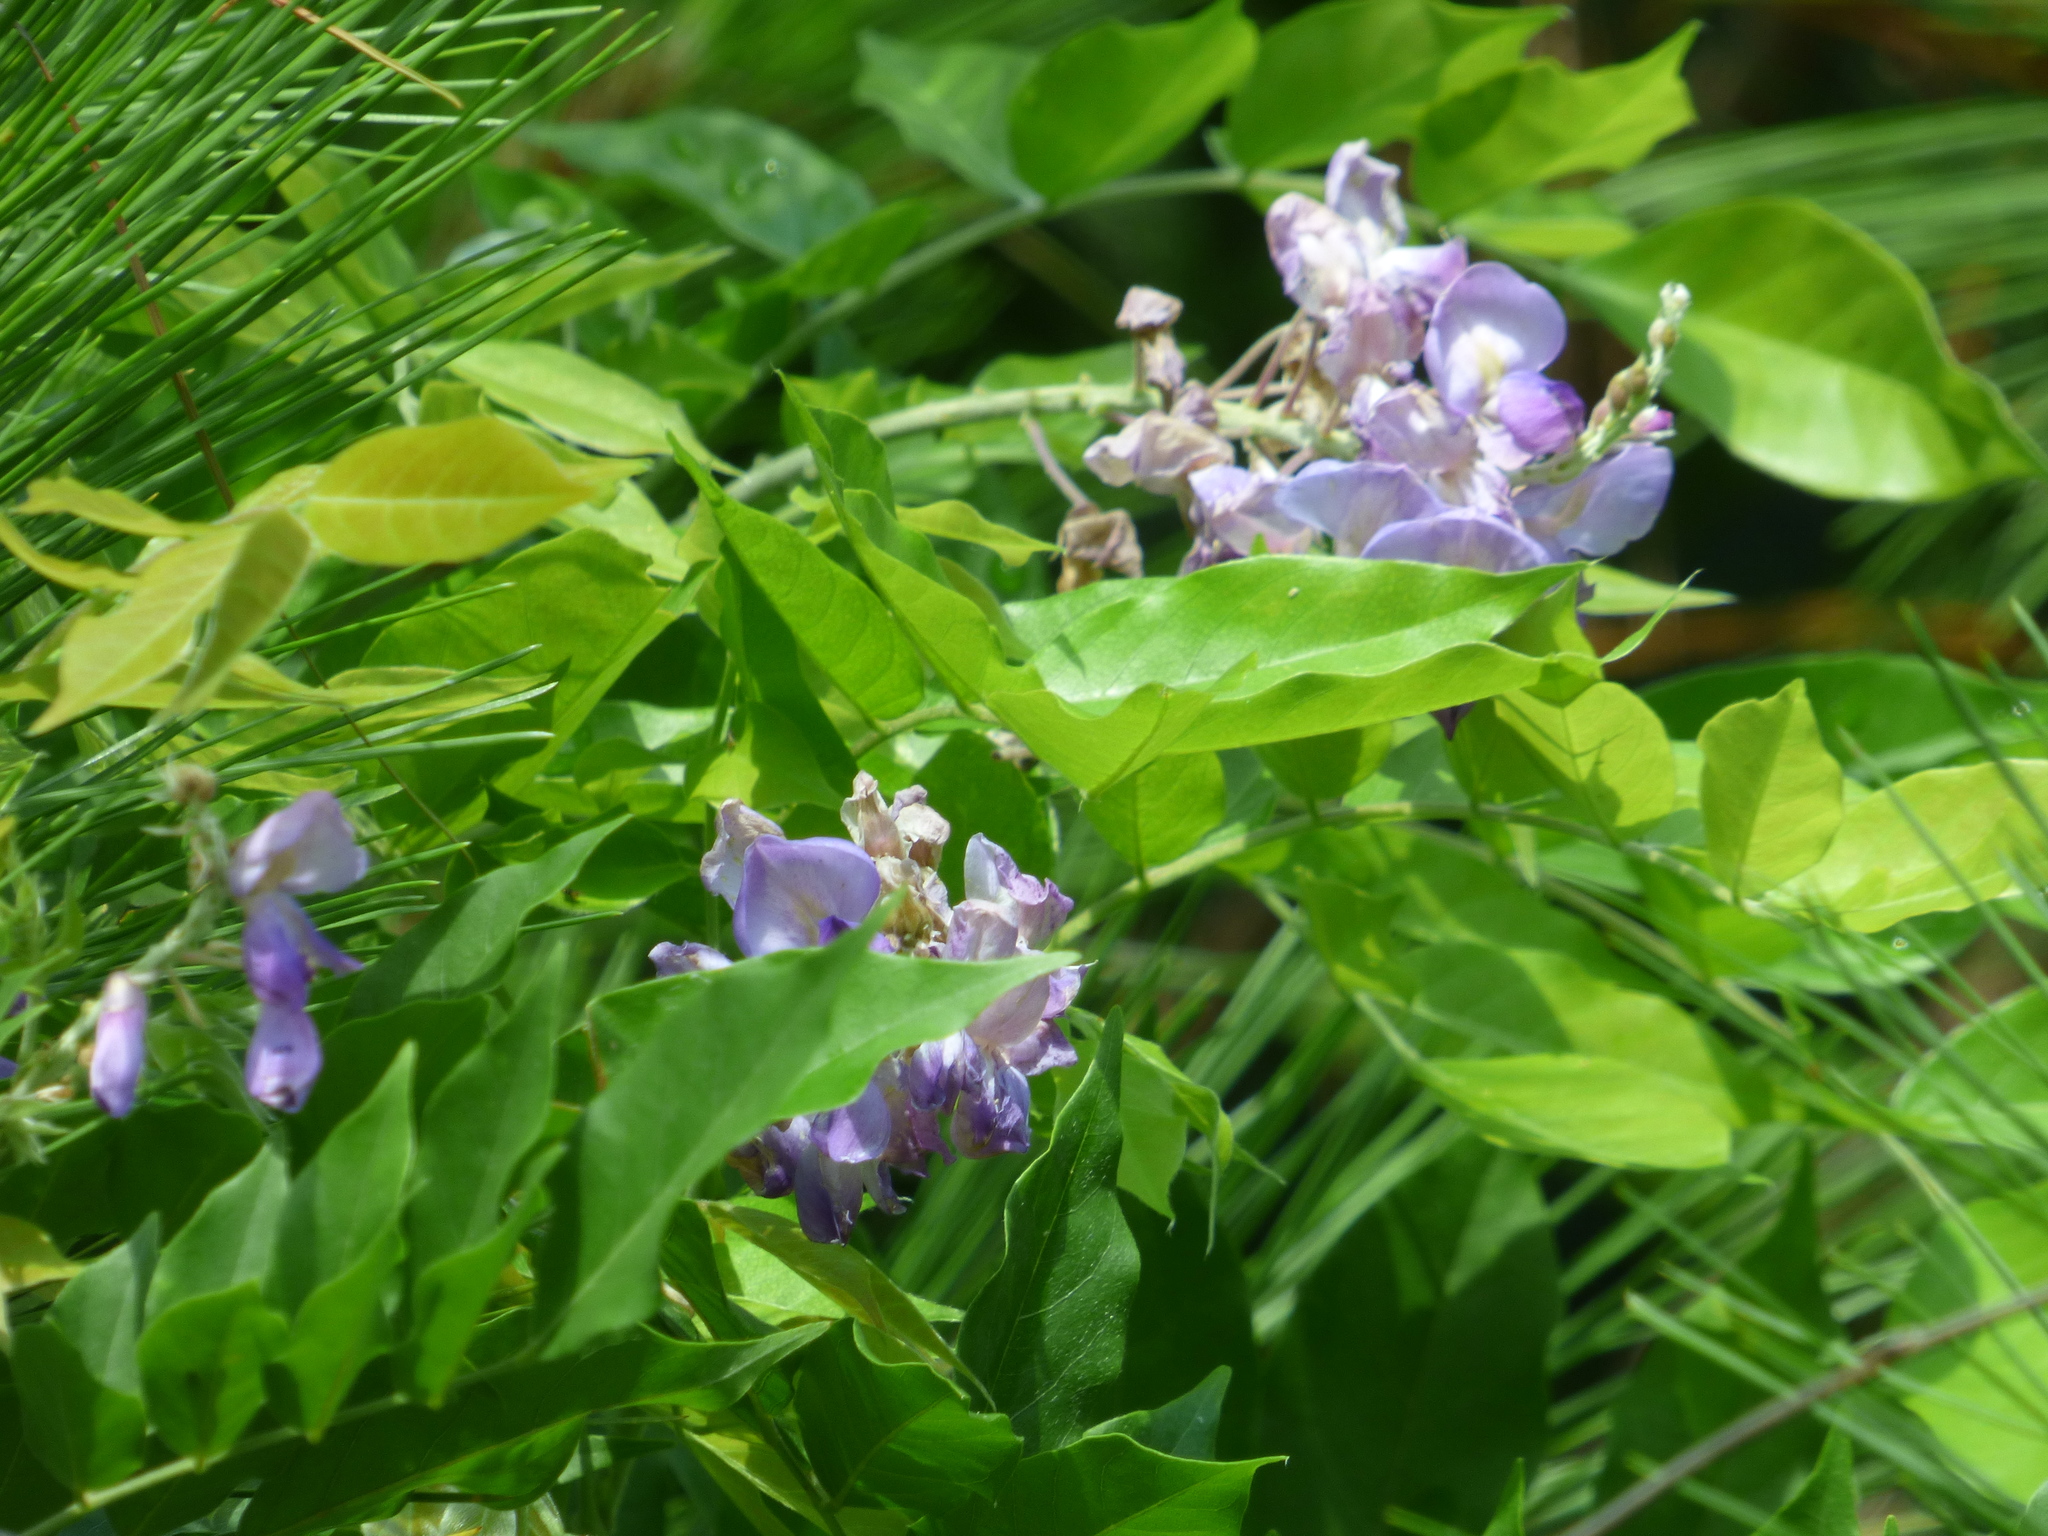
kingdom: Plantae
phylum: Tracheophyta
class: Magnoliopsida
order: Fabales
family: Fabaceae
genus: Wisteria
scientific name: Wisteria sinensis
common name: Chinese wisteria
